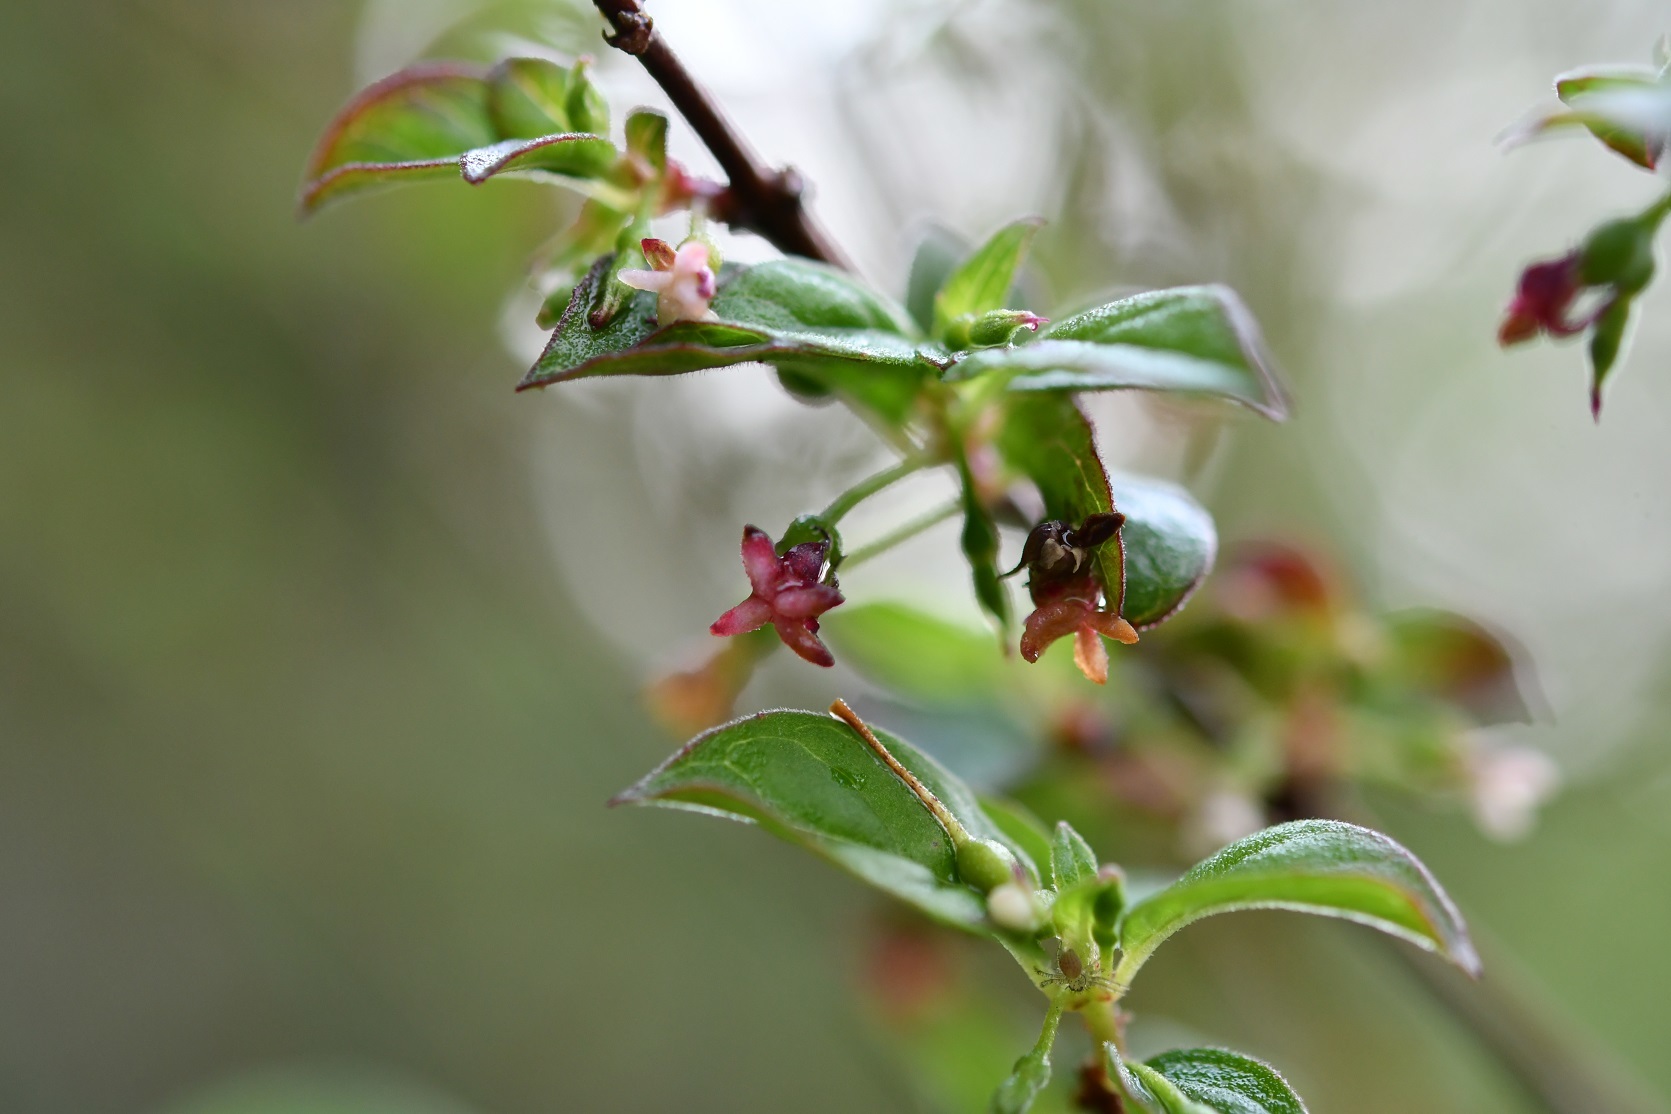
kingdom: Plantae
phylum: Tracheophyta
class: Magnoliopsida
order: Myrtales
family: Onagraceae
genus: Fuchsia
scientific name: Fuchsia encliandra
